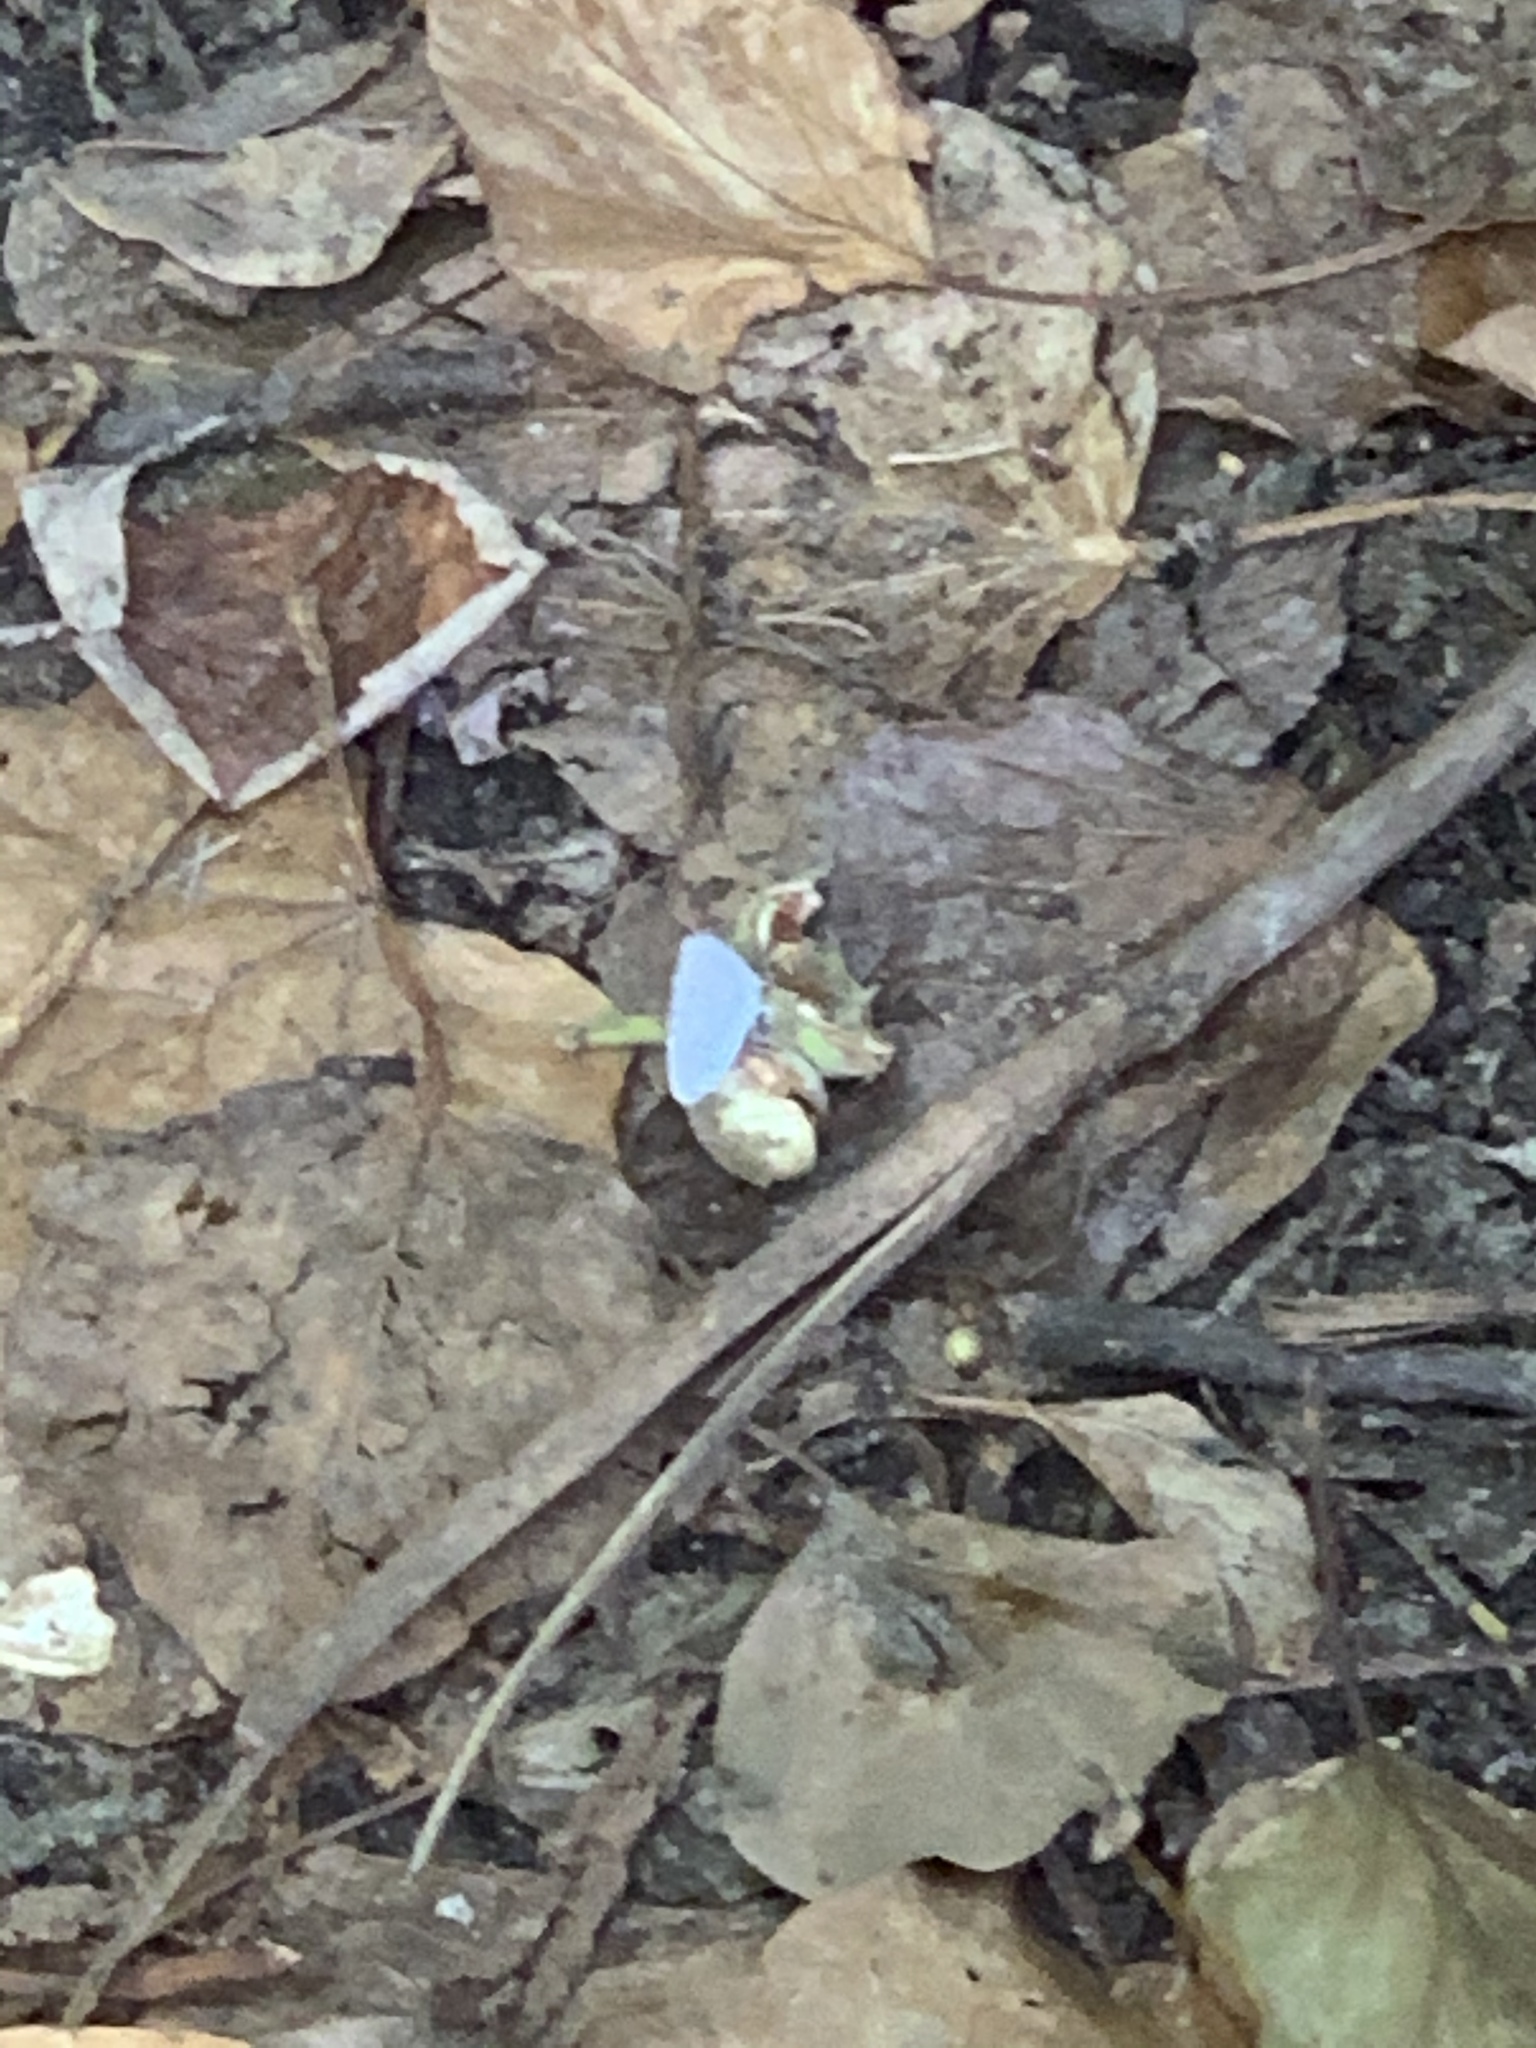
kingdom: Animalia
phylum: Arthropoda
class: Insecta
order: Lepidoptera
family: Lycaenidae
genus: Celastrina
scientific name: Celastrina argiolus
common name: Holly blue
